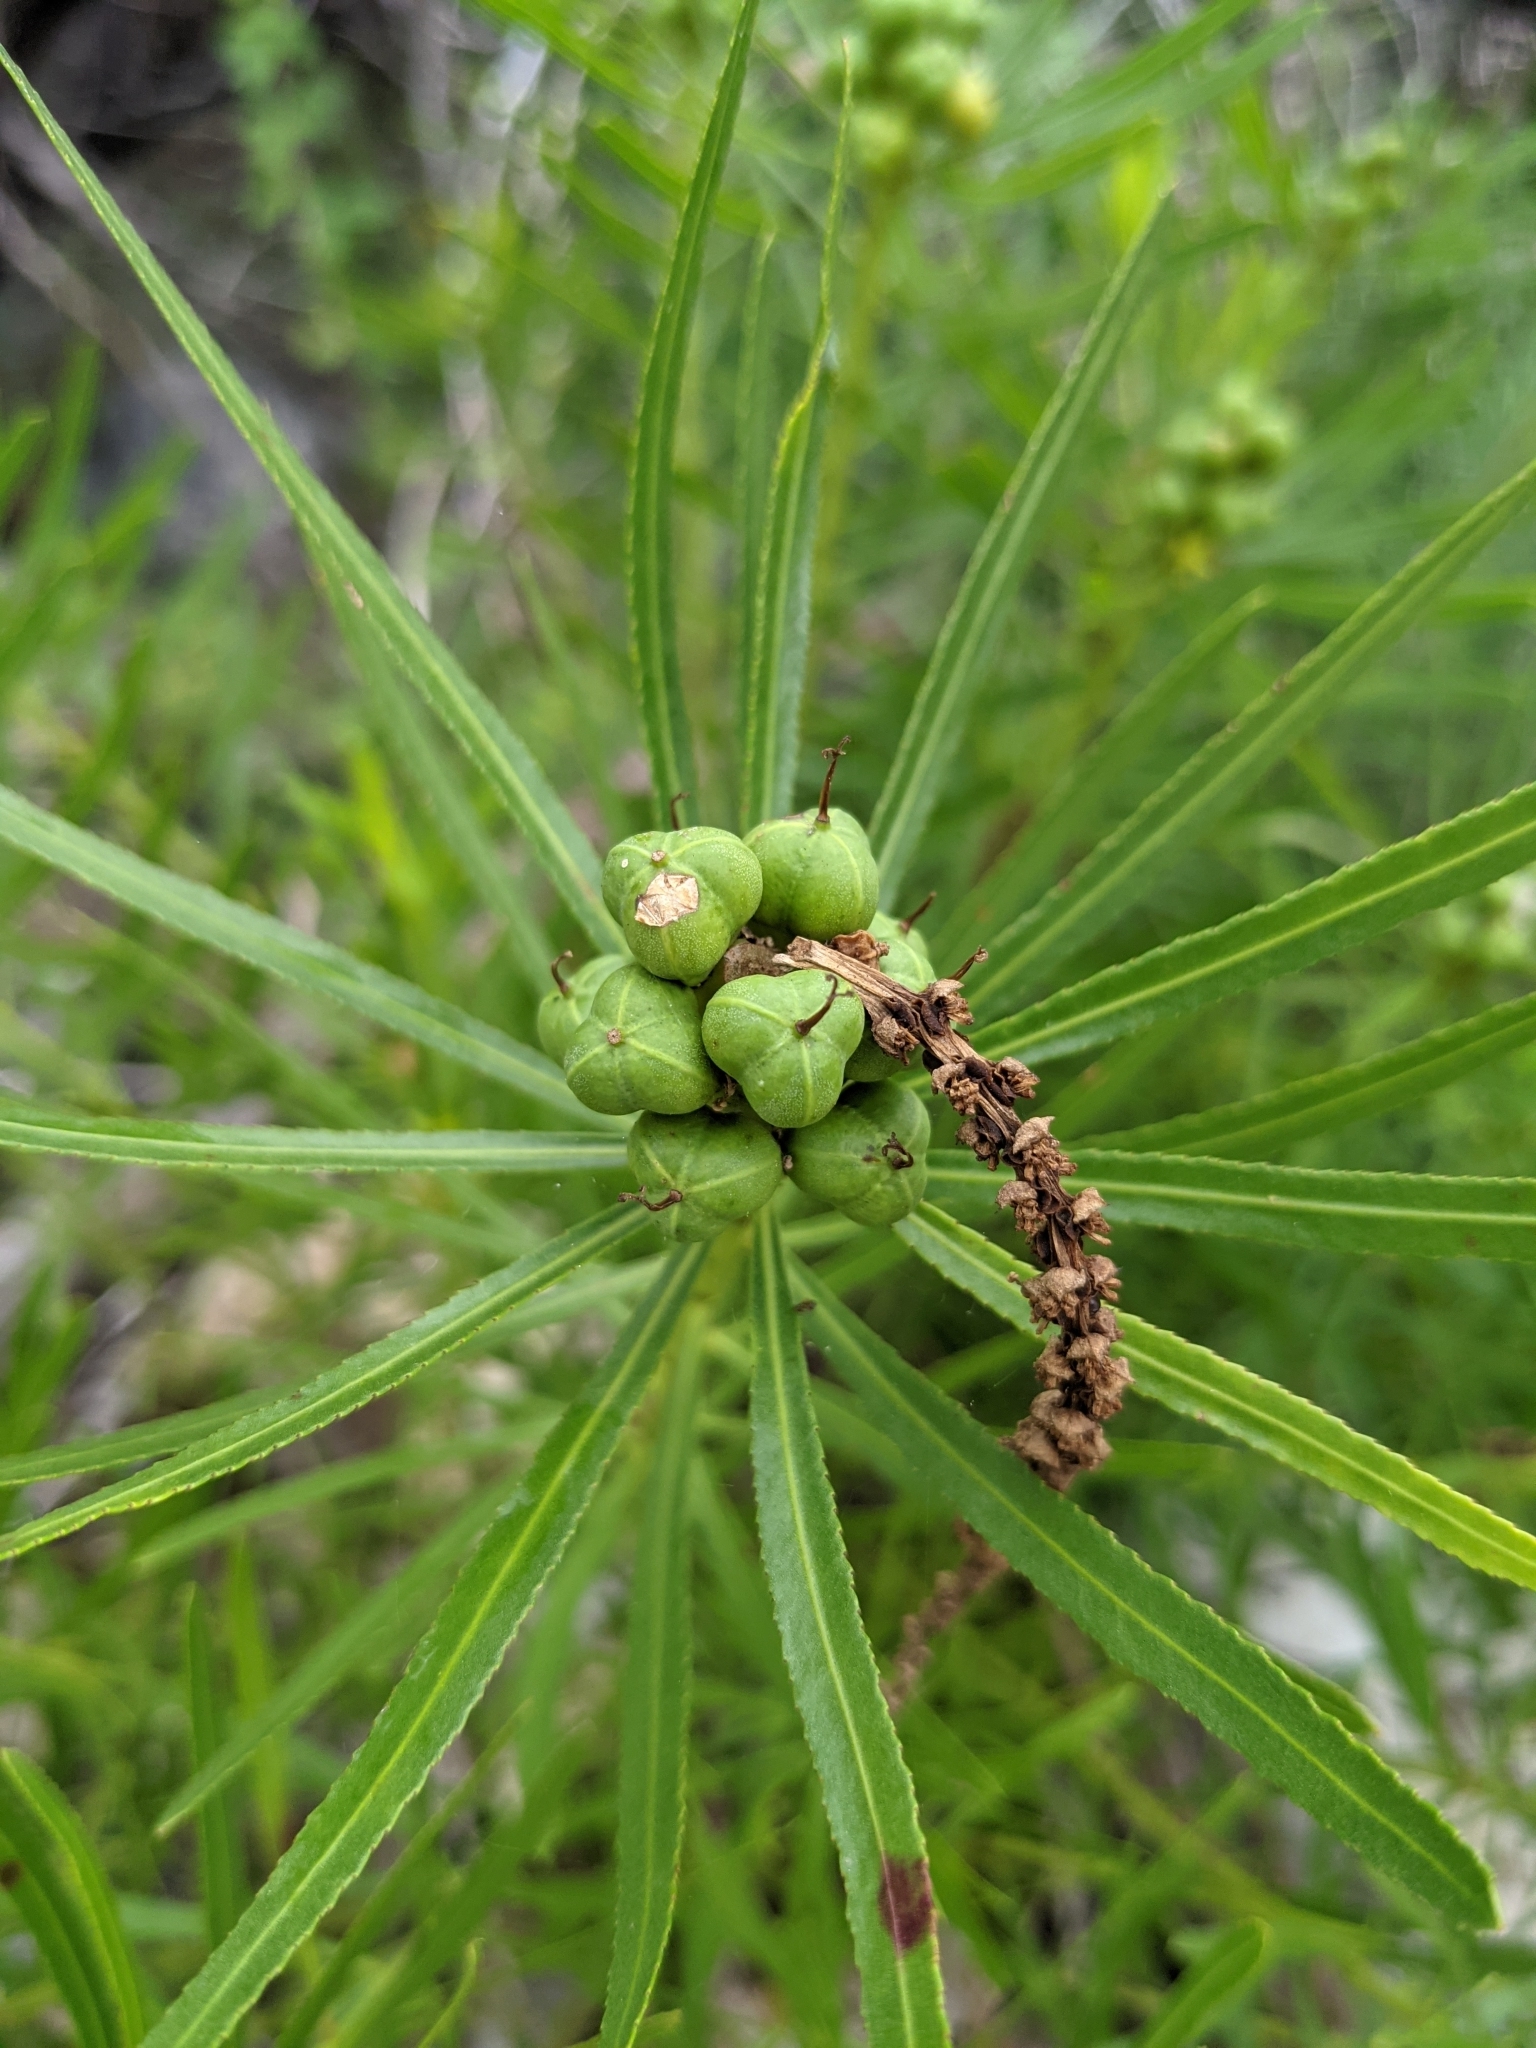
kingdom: Plantae
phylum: Tracheophyta
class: Magnoliopsida
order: Malpighiales
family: Euphorbiaceae
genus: Stillingia
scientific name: Stillingia texana
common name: Texas stillingia
